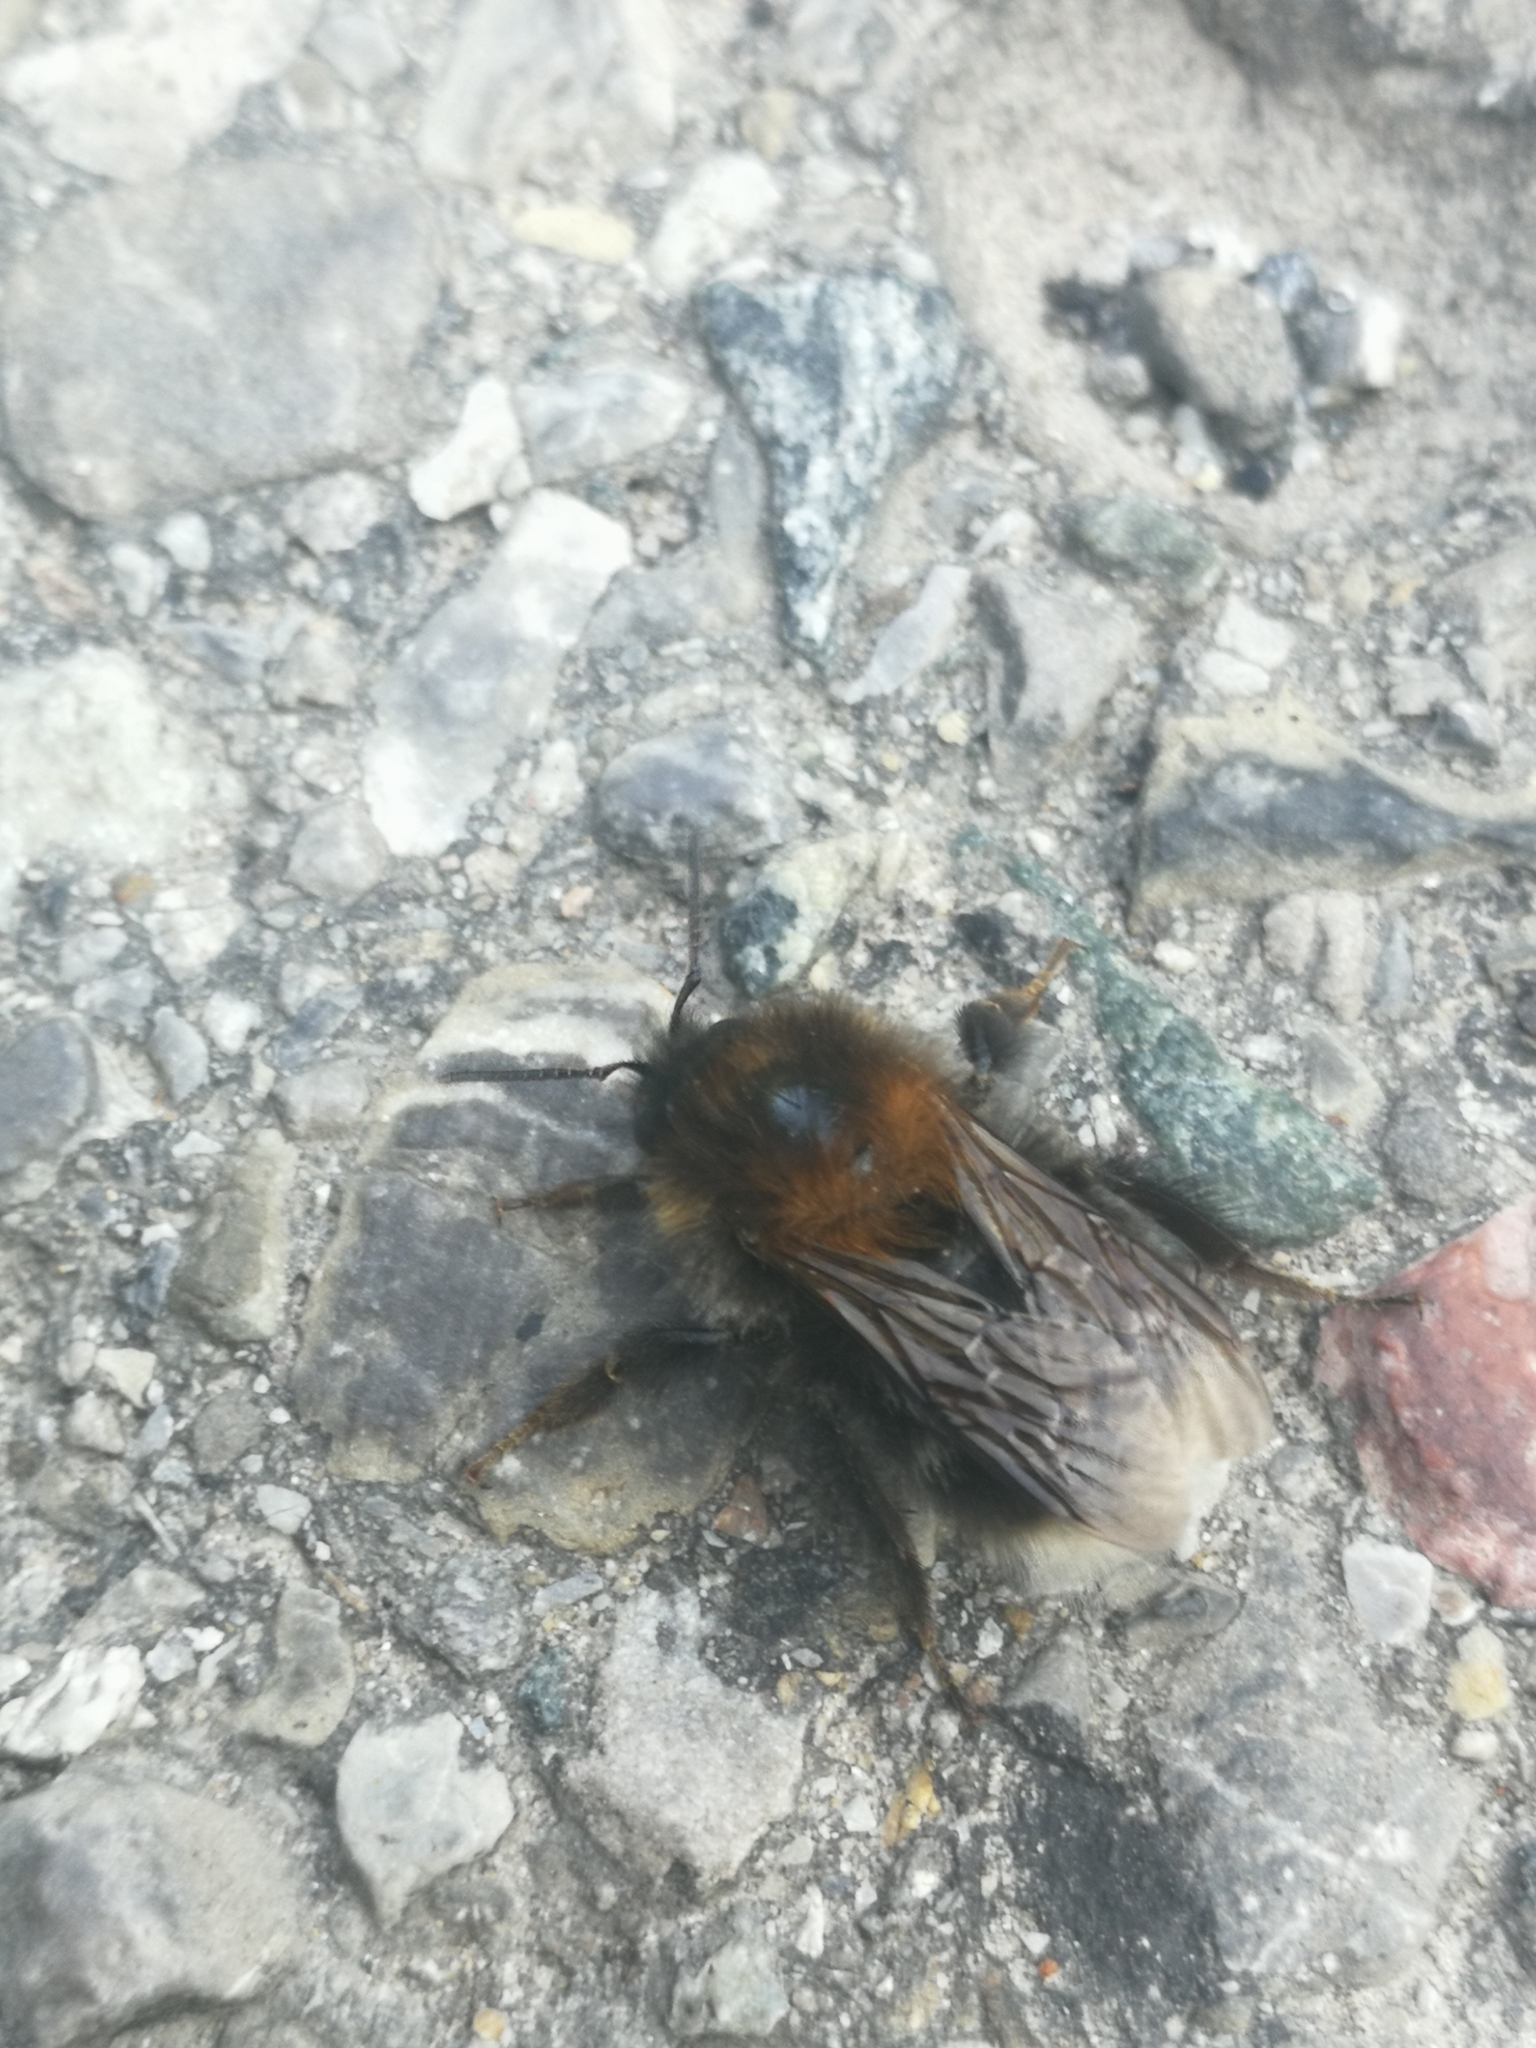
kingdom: Animalia
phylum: Arthropoda
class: Insecta
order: Hymenoptera
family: Apidae
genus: Bombus
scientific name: Bombus hypnorum
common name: New garden bumblebee
